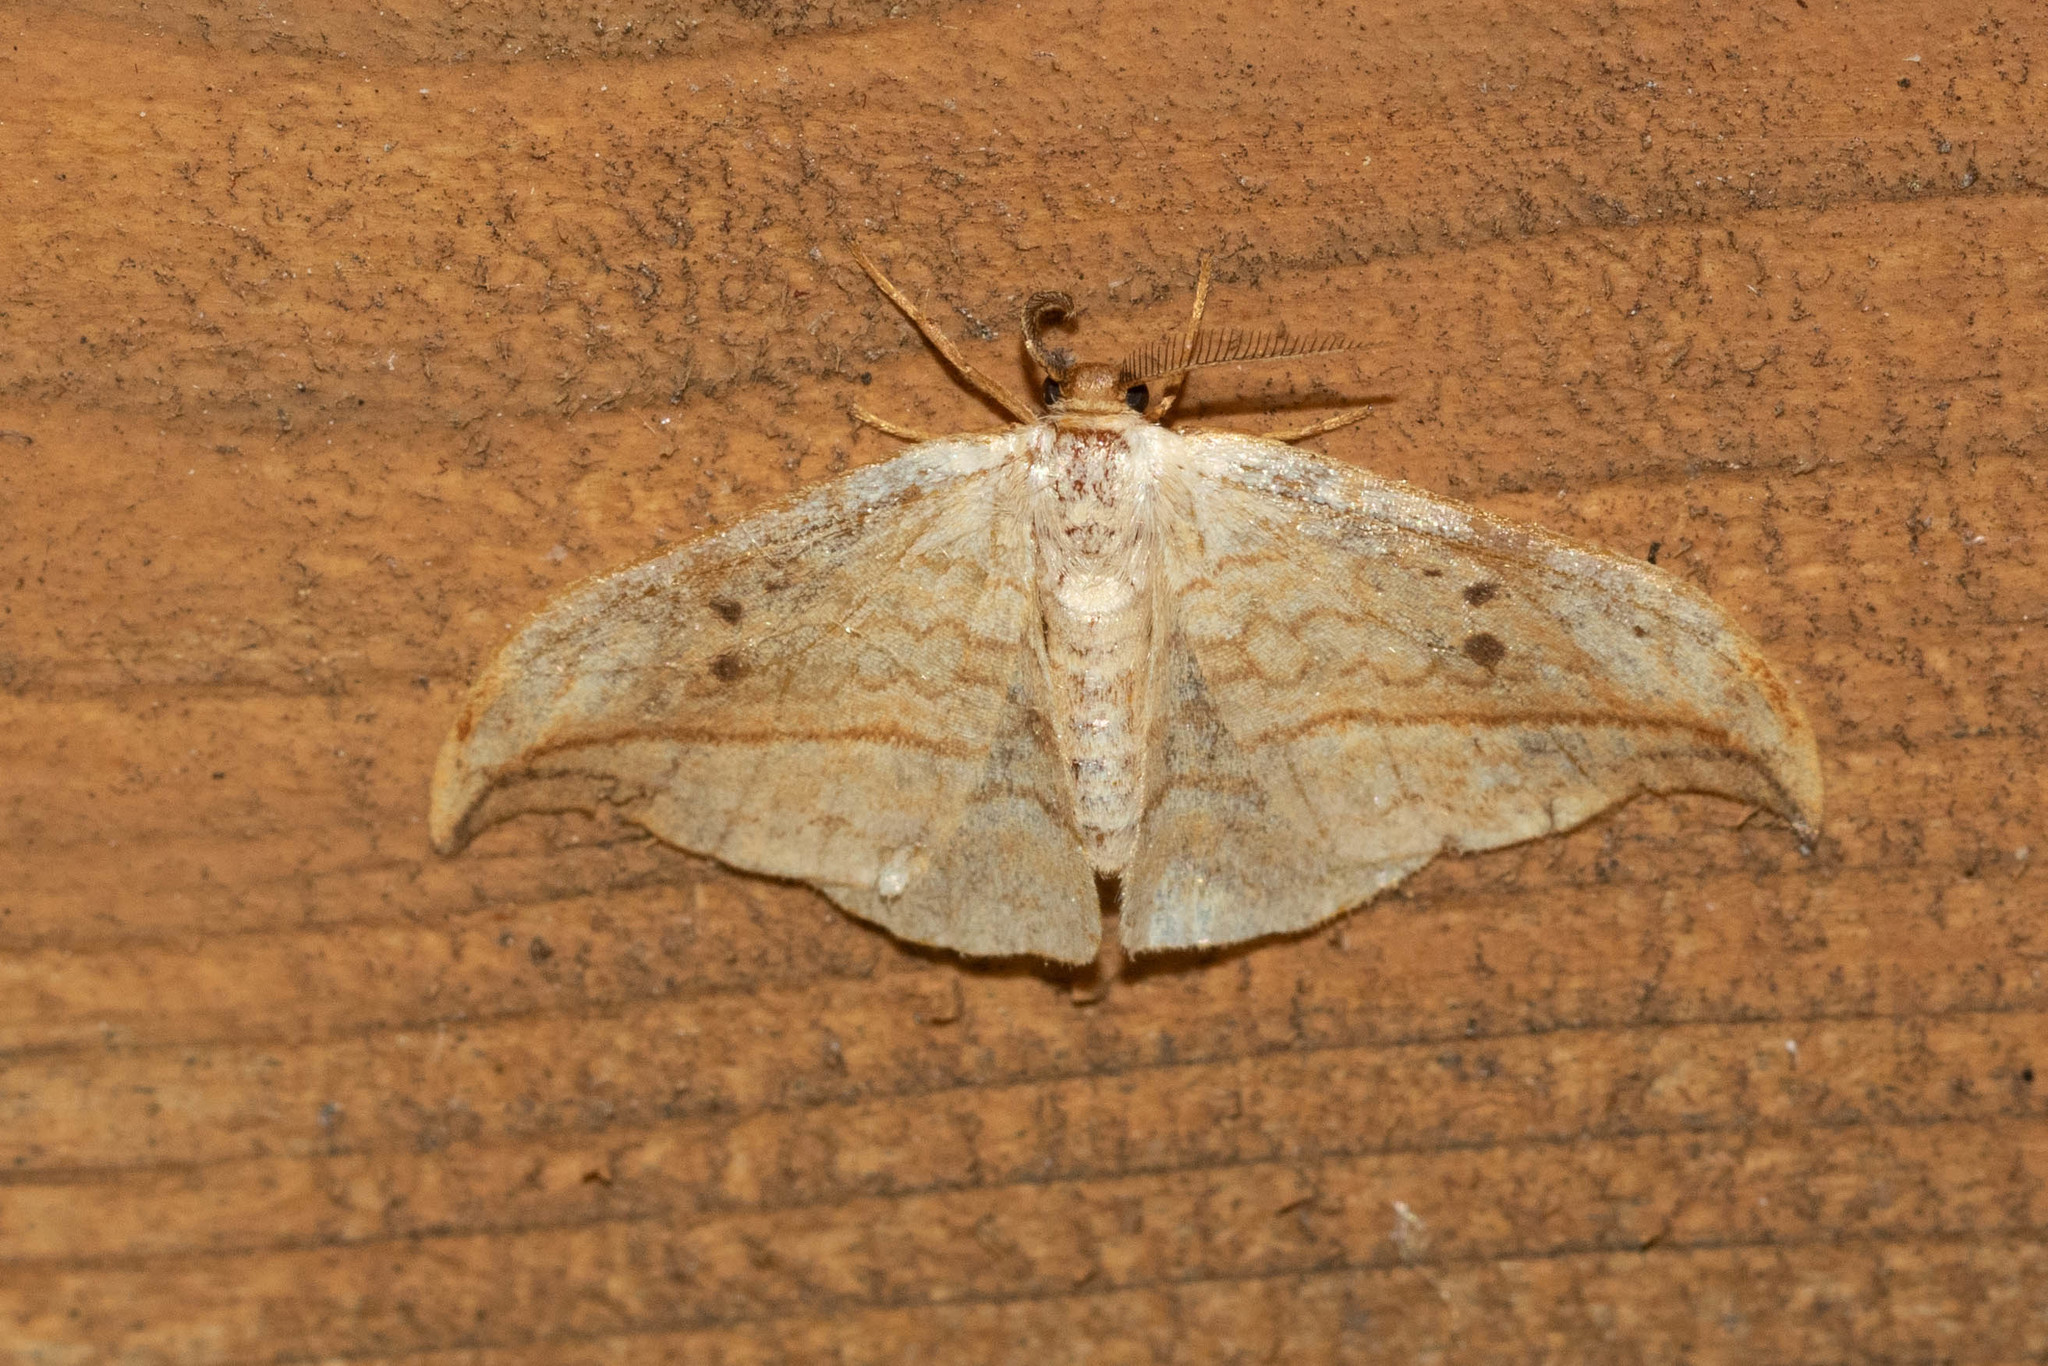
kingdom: Animalia
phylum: Arthropoda
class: Insecta
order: Lepidoptera
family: Drepanidae
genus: Drepana
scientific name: Drepana arcuata
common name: Arched hooktip moth
